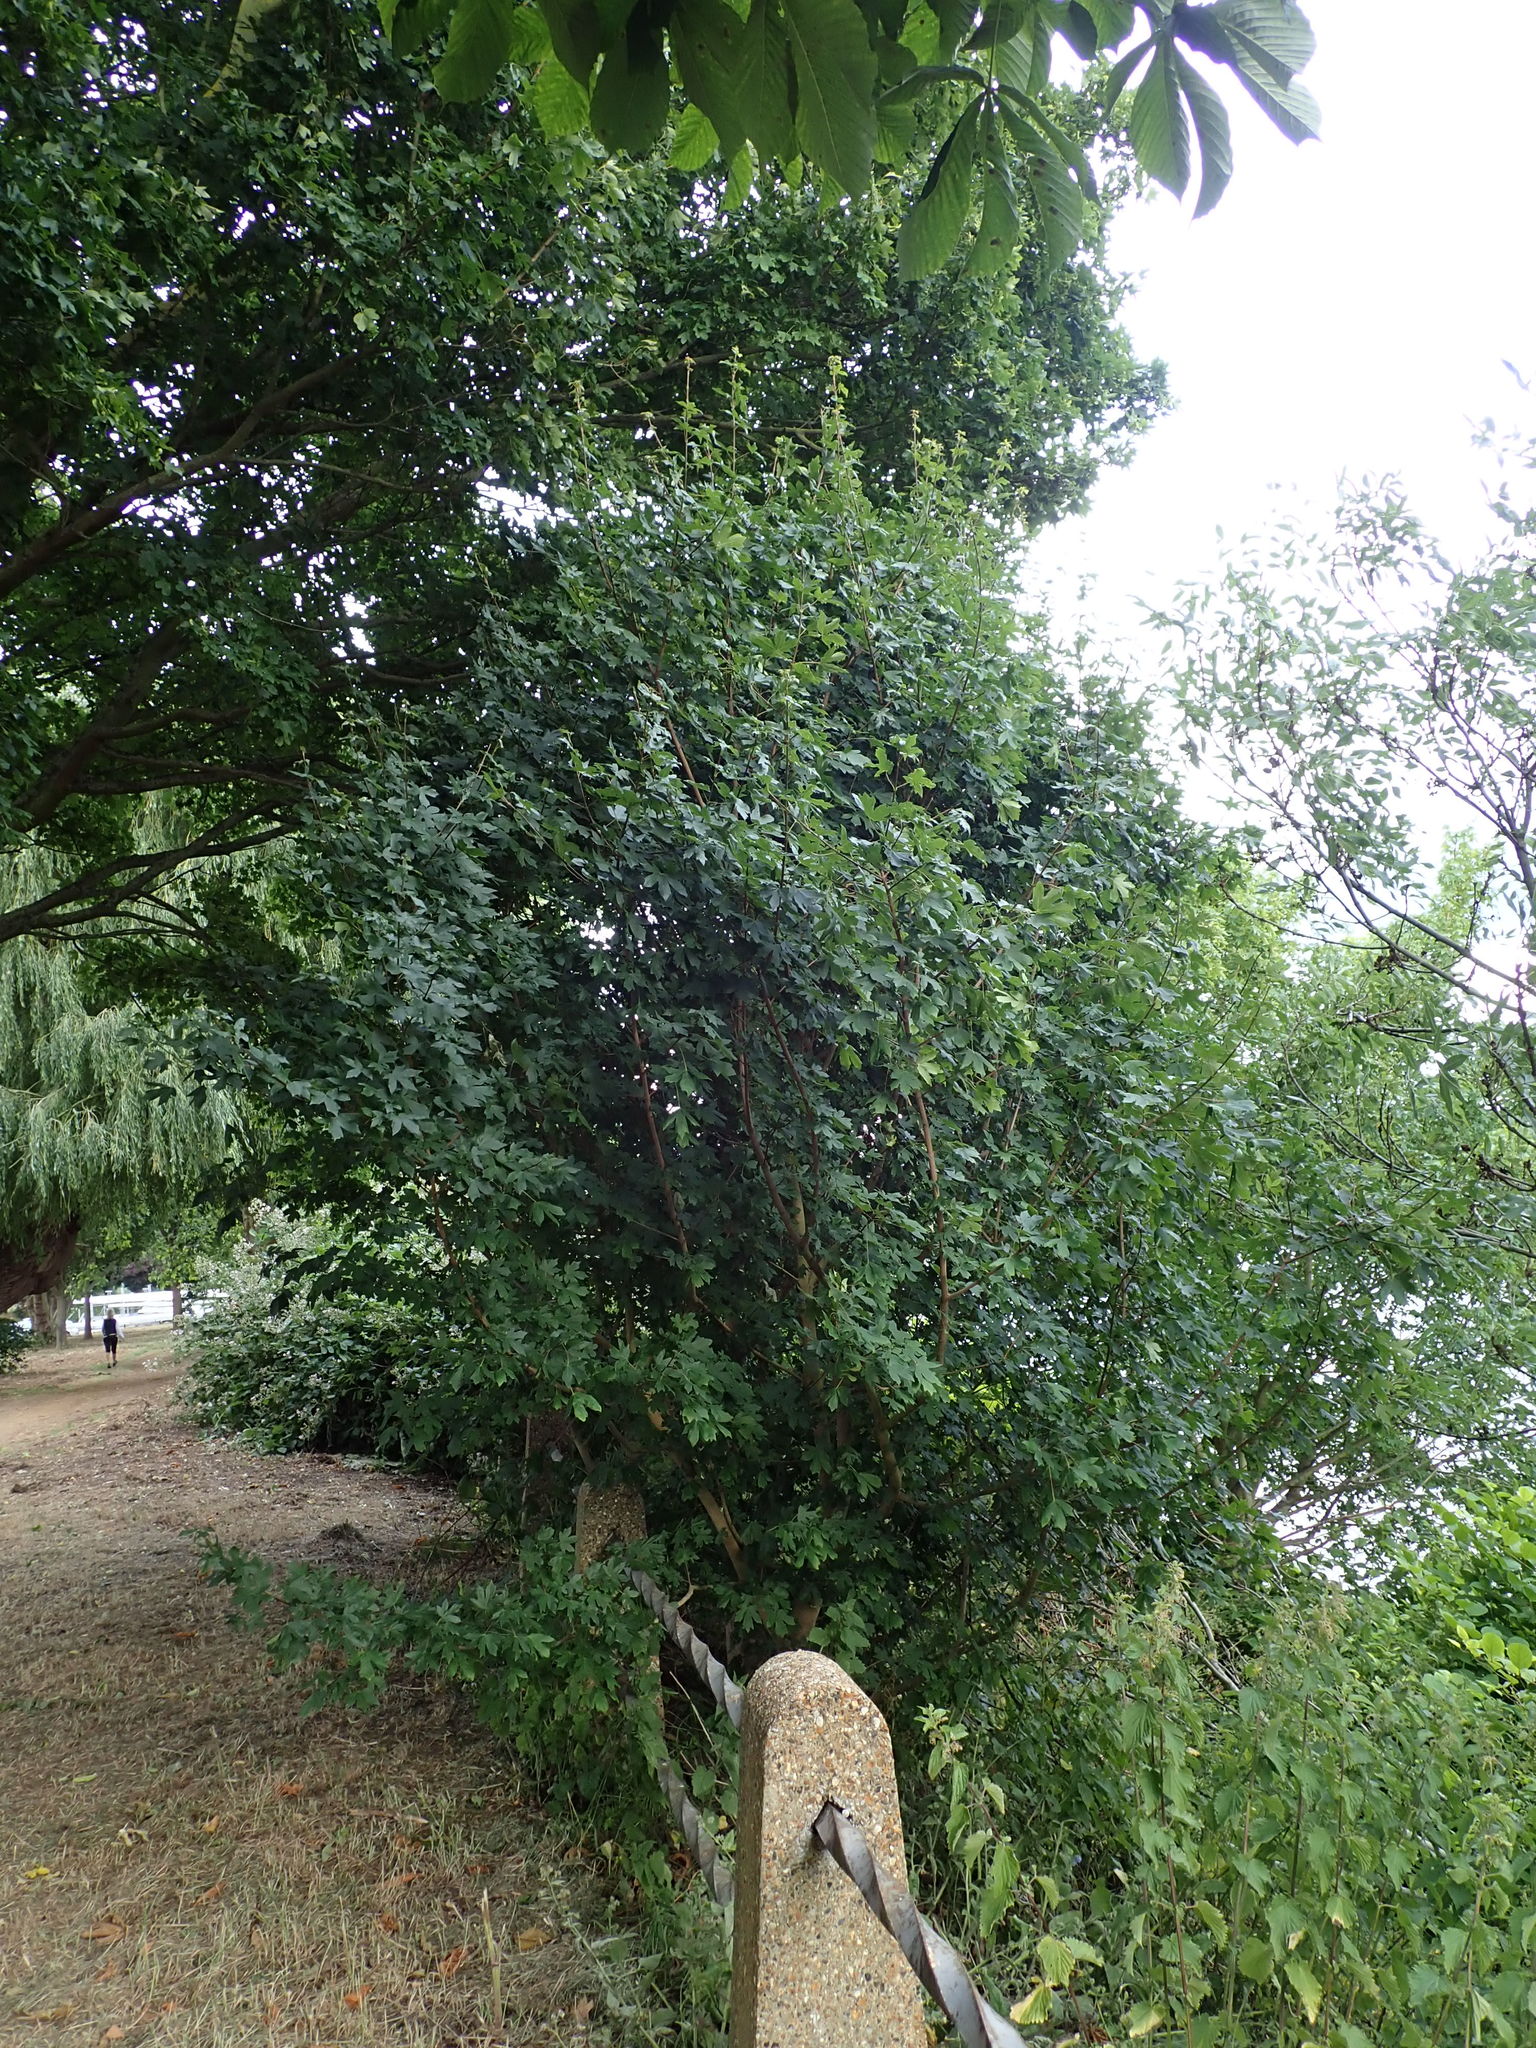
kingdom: Plantae
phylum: Tracheophyta
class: Magnoliopsida
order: Sapindales
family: Sapindaceae
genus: Acer
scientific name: Acer campestre
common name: Field maple
